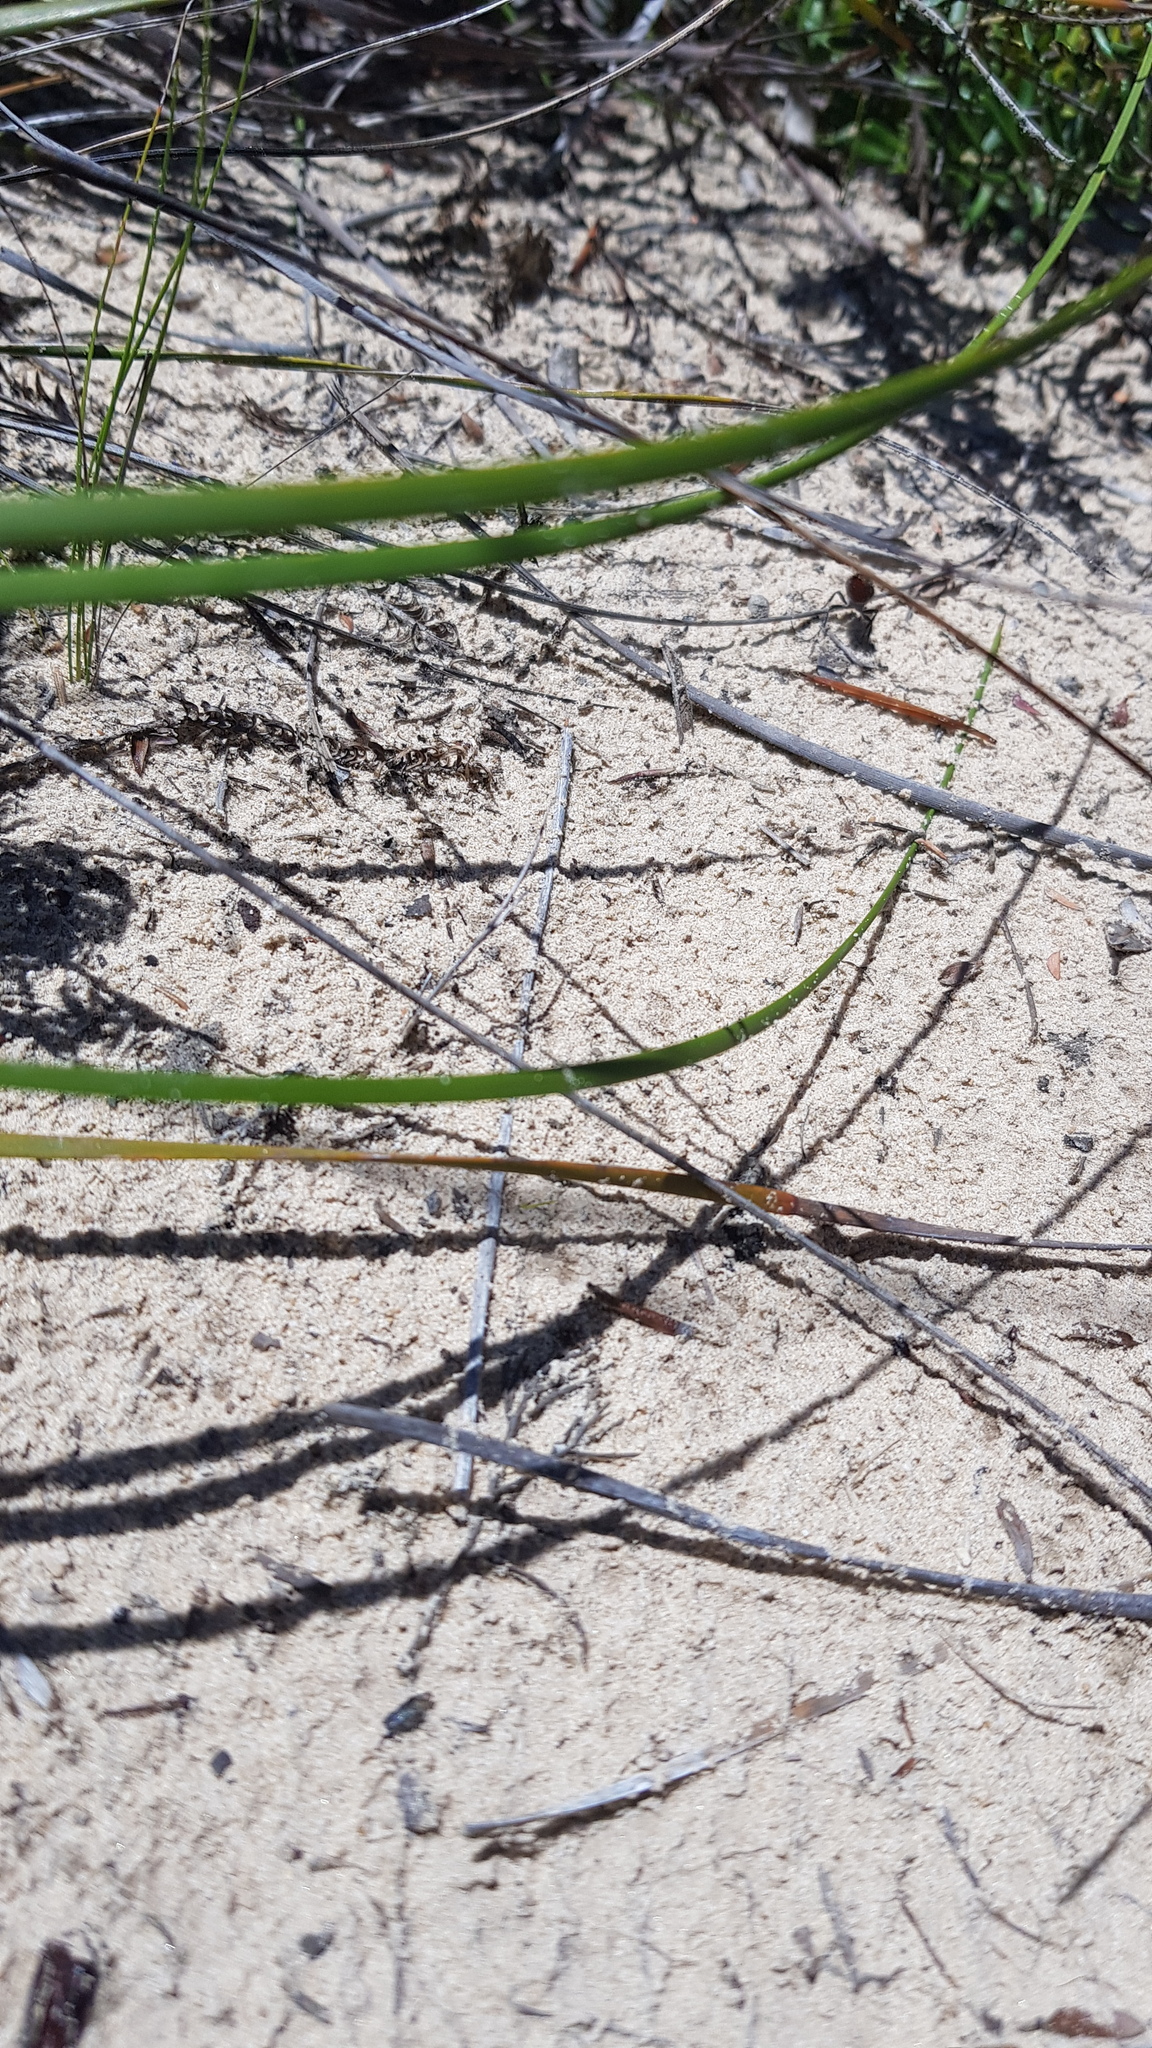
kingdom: Animalia
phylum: Arthropoda
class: Insecta
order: Hymenoptera
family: Mutillidae
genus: Ephutomorpha
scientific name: Ephutomorpha
